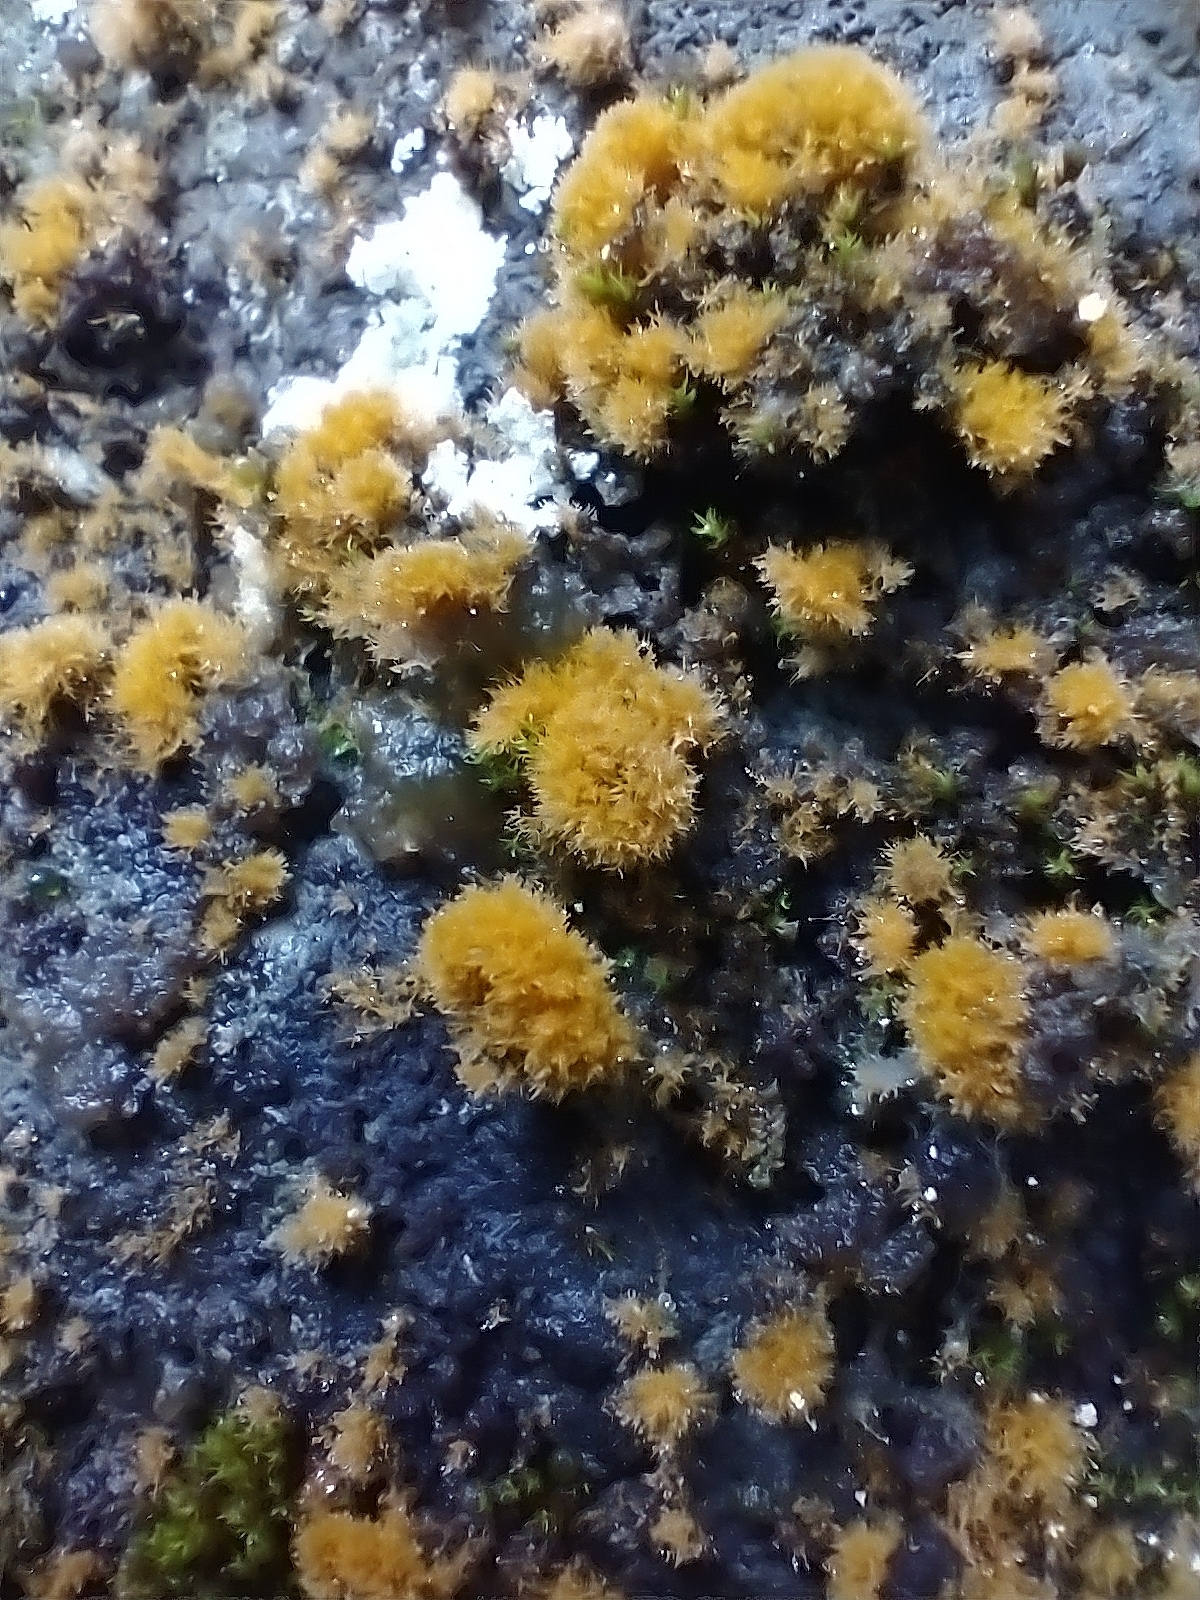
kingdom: Plantae
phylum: Chlorophyta
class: Ulvophyceae
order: Trentepohliales
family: Trentepohliaceae
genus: Trentepohlia
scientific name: Trentepohlia aurea
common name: Orange rock hair
